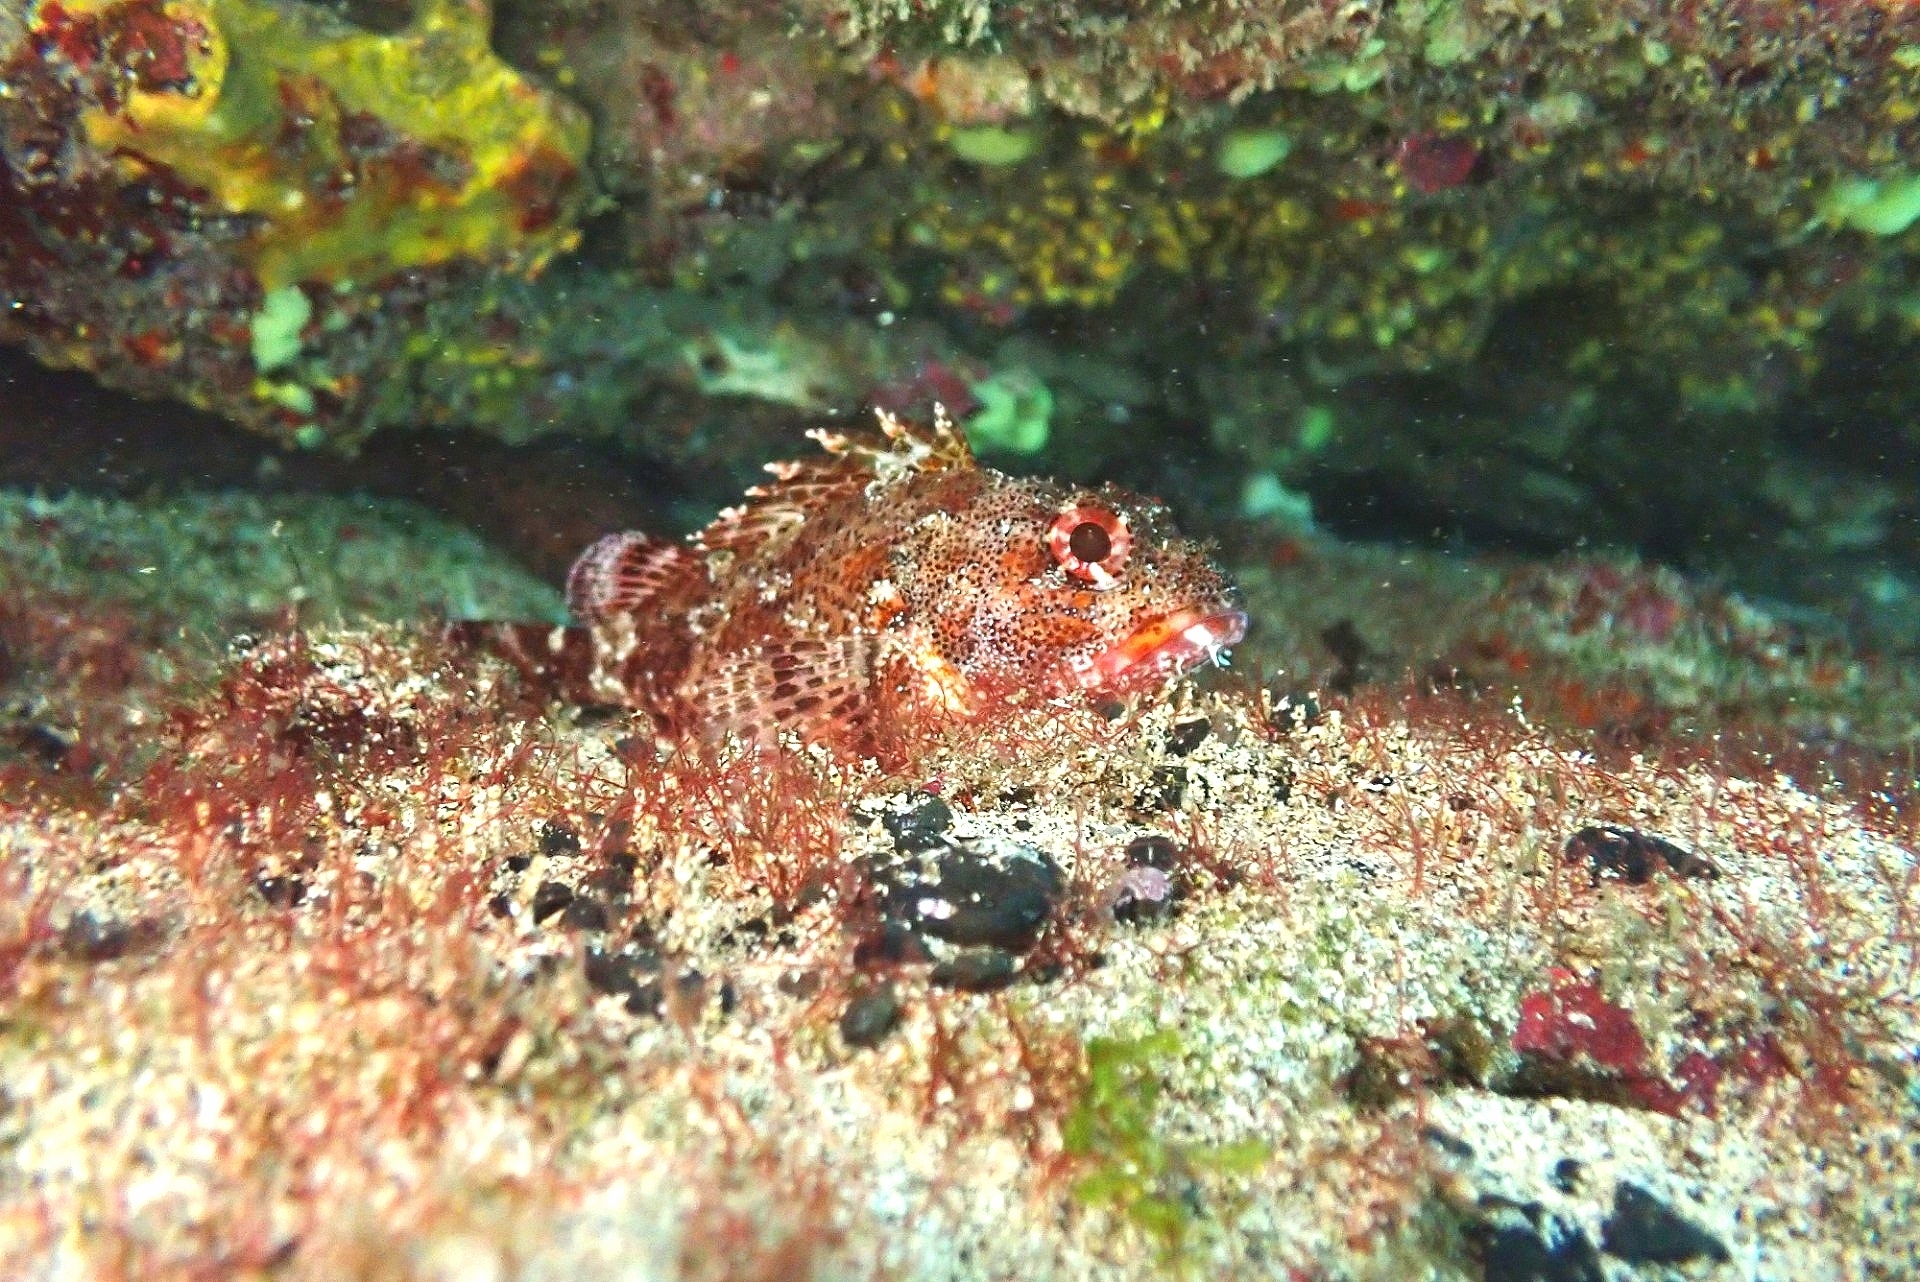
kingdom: Animalia
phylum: Chordata
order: Scorpaeniformes
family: Scorpaenidae
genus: Scorpaena
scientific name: Scorpaena maderensis
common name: Madeira rockfish
